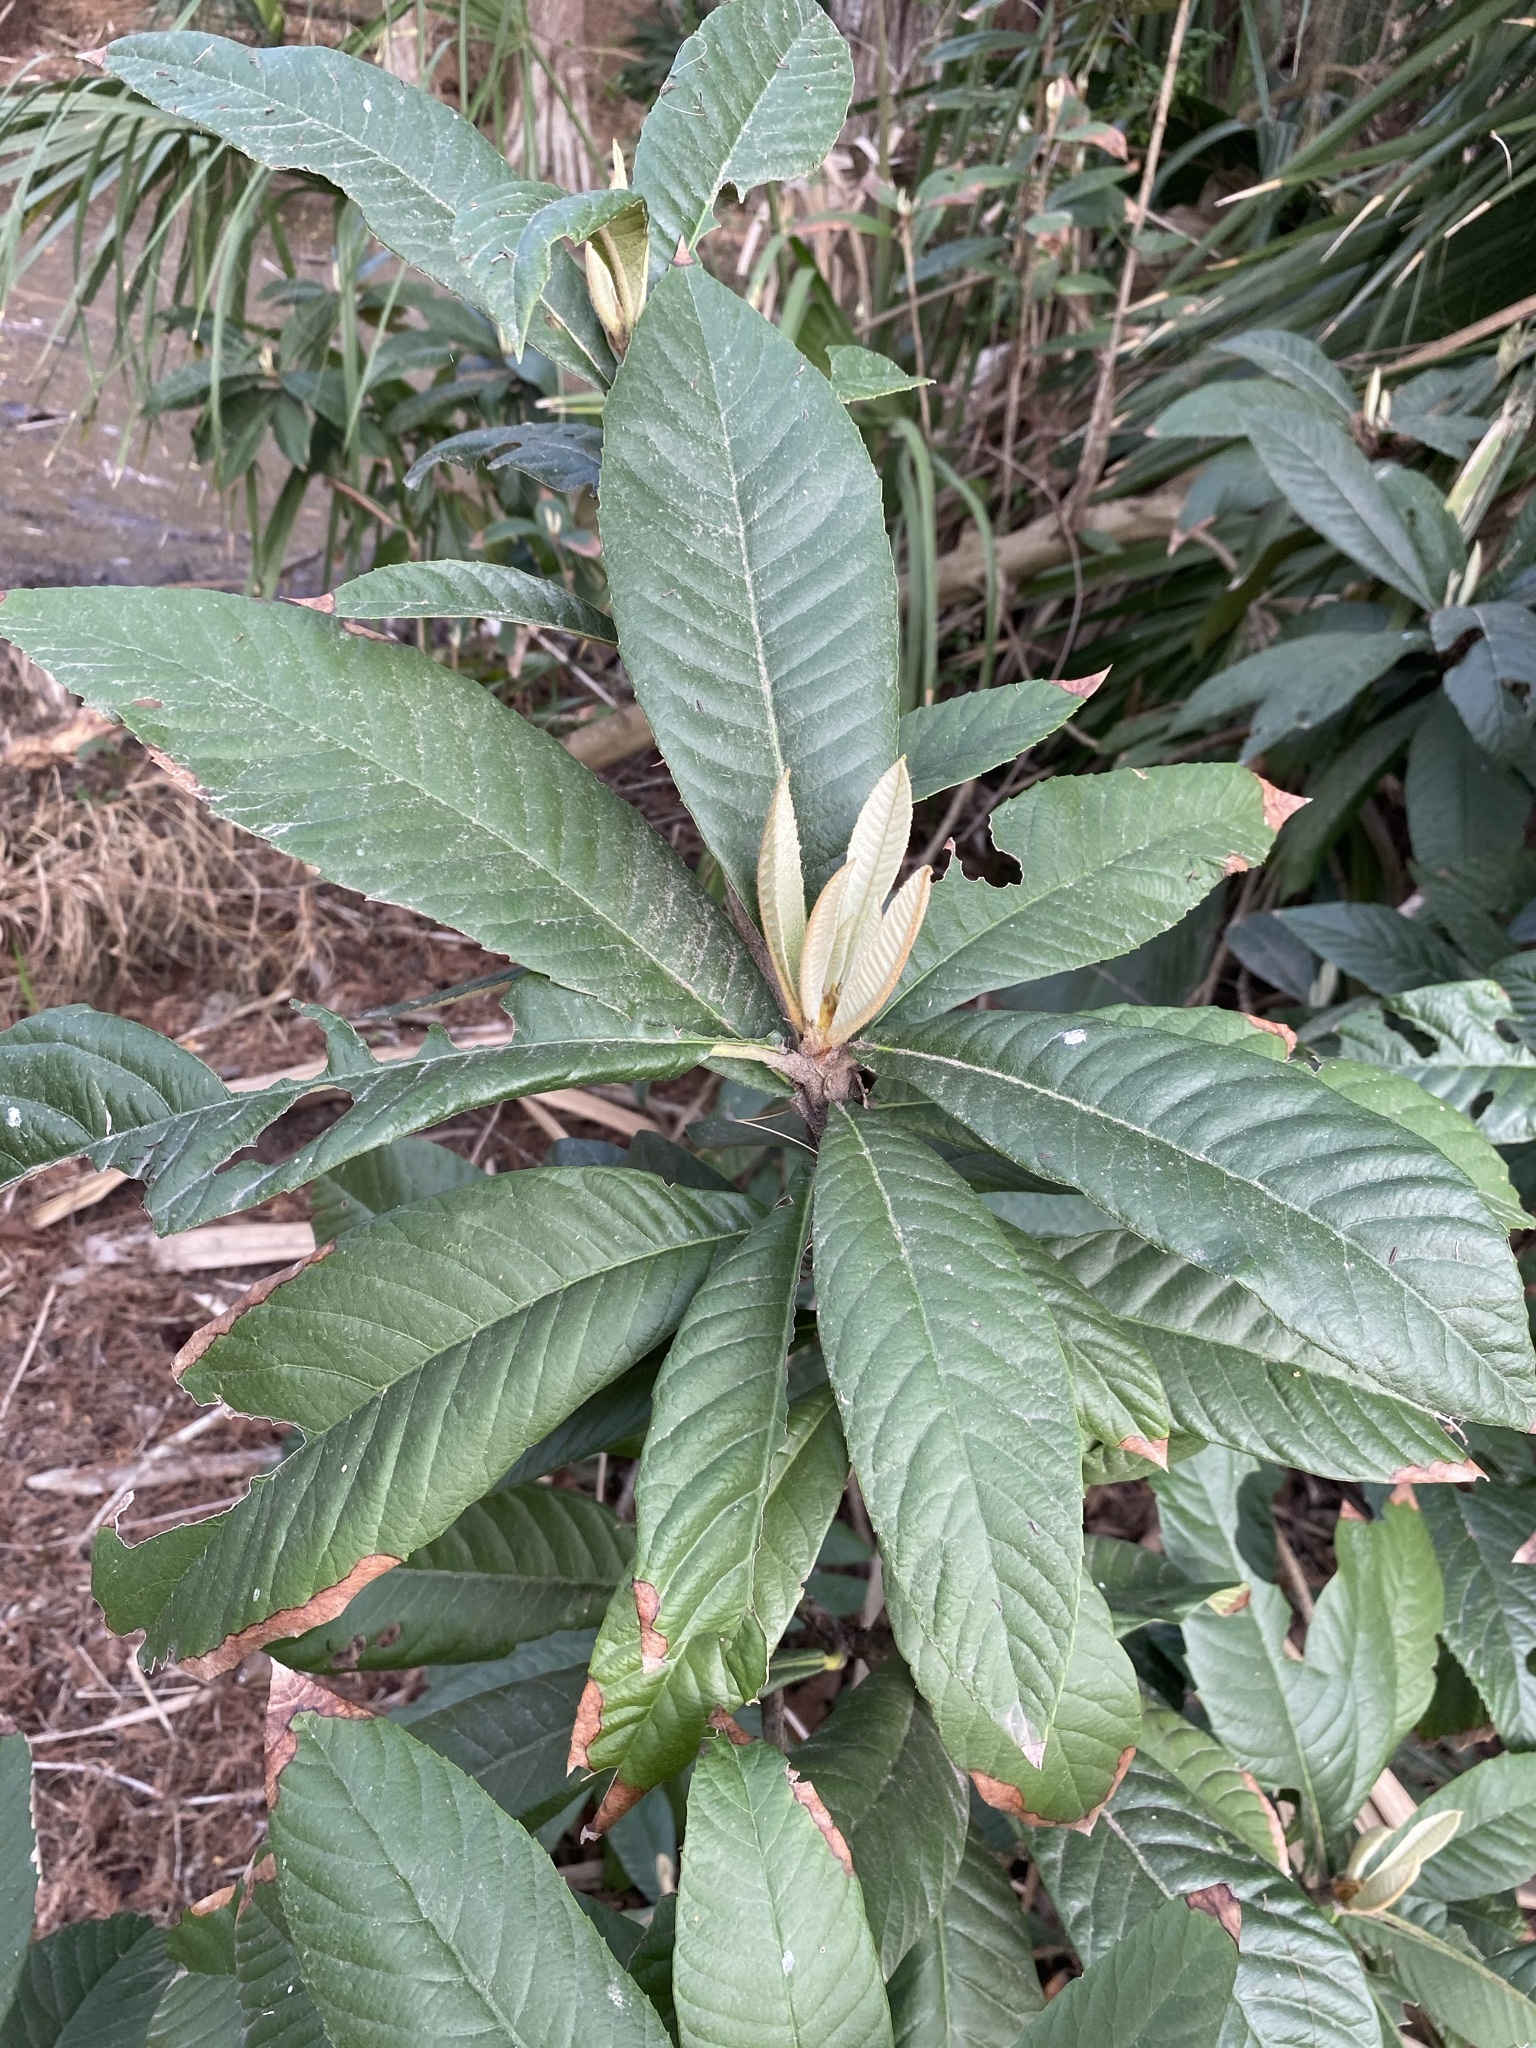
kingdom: Plantae
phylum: Tracheophyta
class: Magnoliopsida
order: Rosales
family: Rosaceae
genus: Rhaphiolepis
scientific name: Rhaphiolepis bibas
